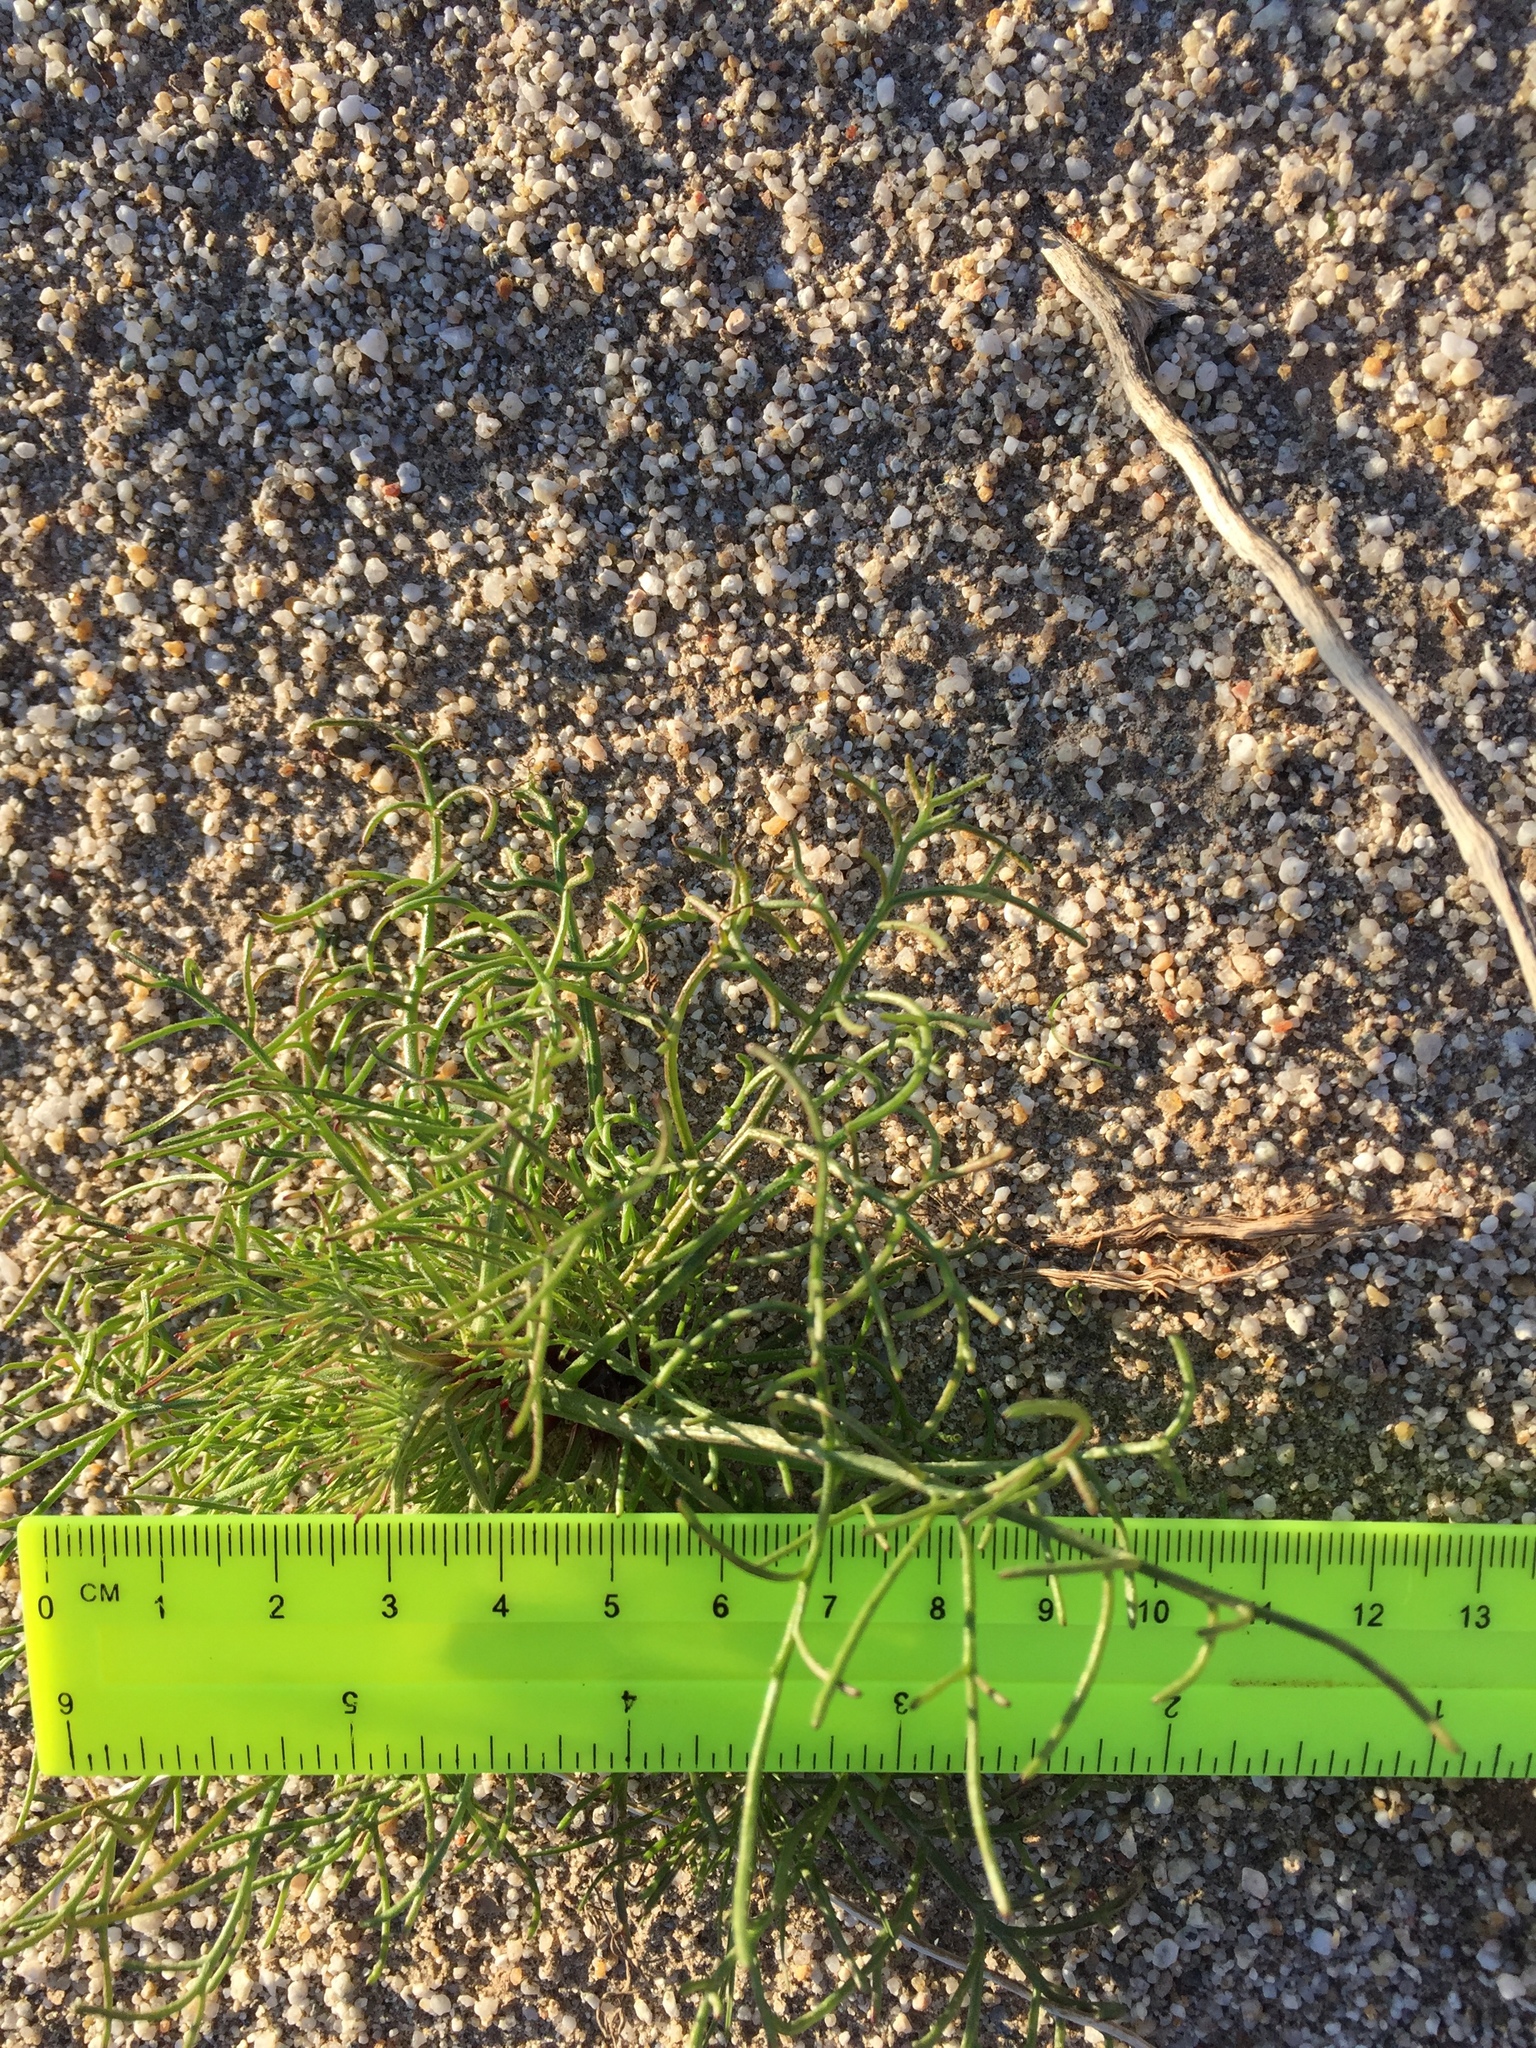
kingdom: Plantae
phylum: Tracheophyta
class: Magnoliopsida
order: Asterales
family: Asteraceae
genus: Chaenactis
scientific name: Chaenactis carphoclinia
